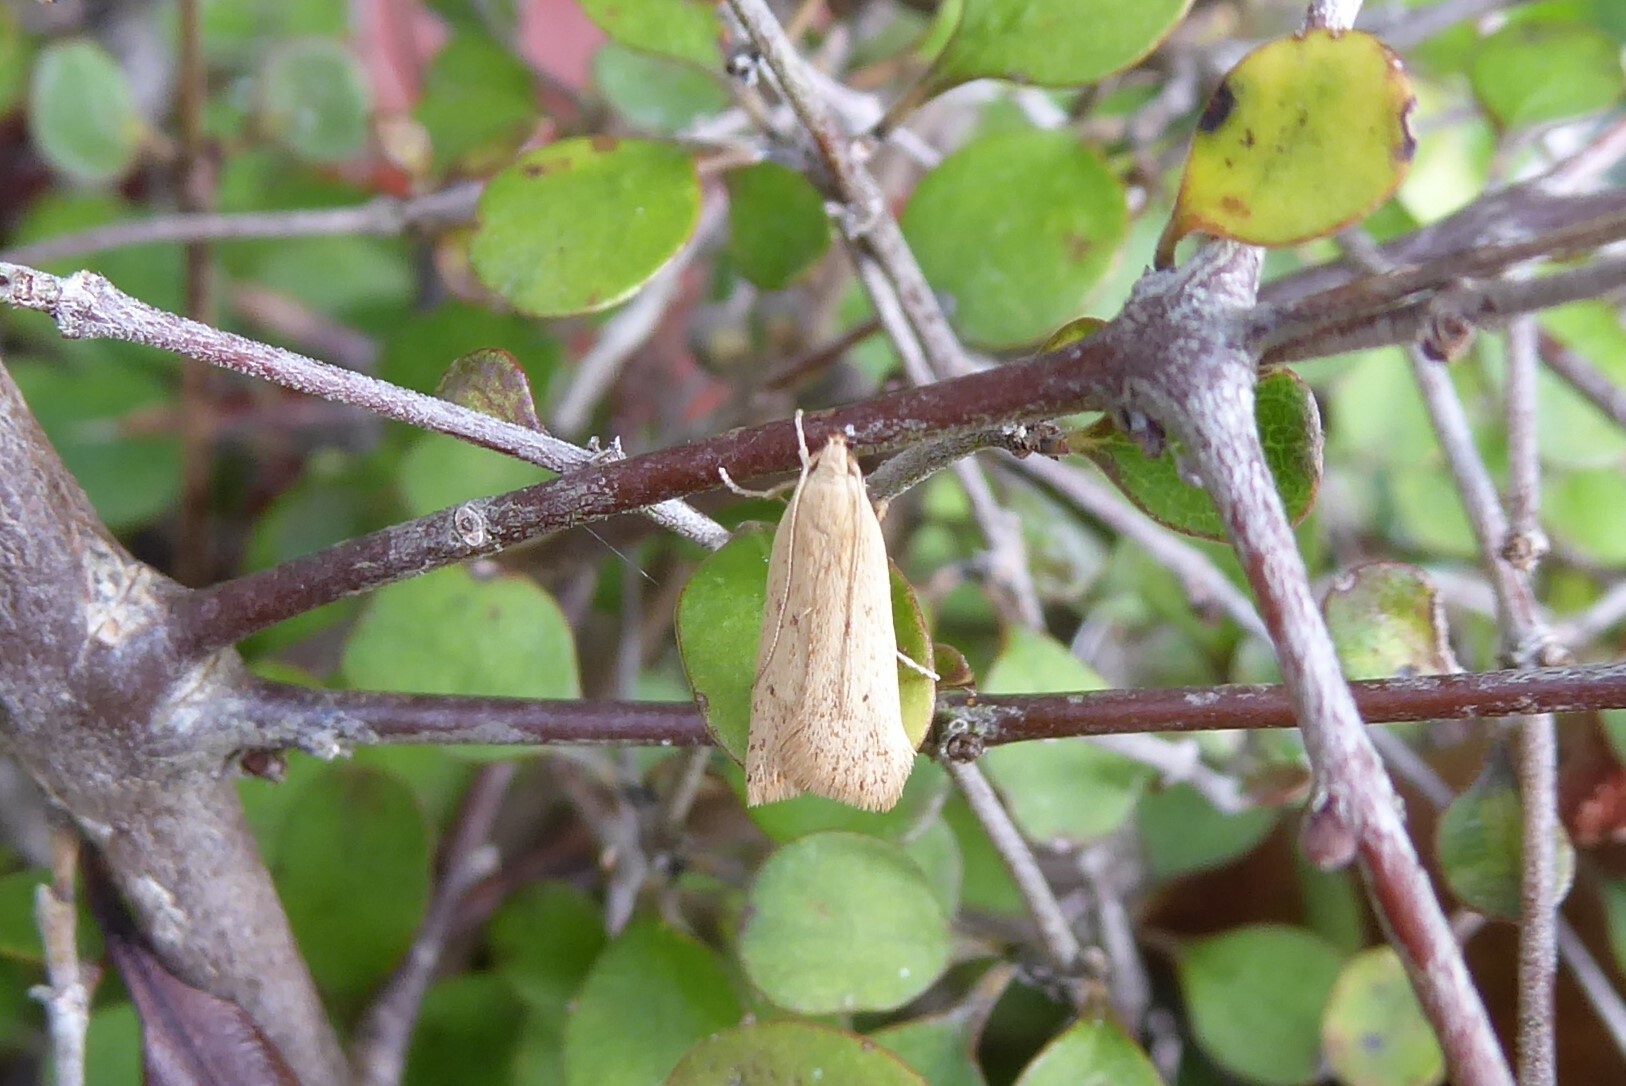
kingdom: Animalia
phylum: Arthropoda
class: Insecta
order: Lepidoptera
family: Oecophoridae
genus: Gymnobathra
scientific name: Gymnobathra sarcoxantha
